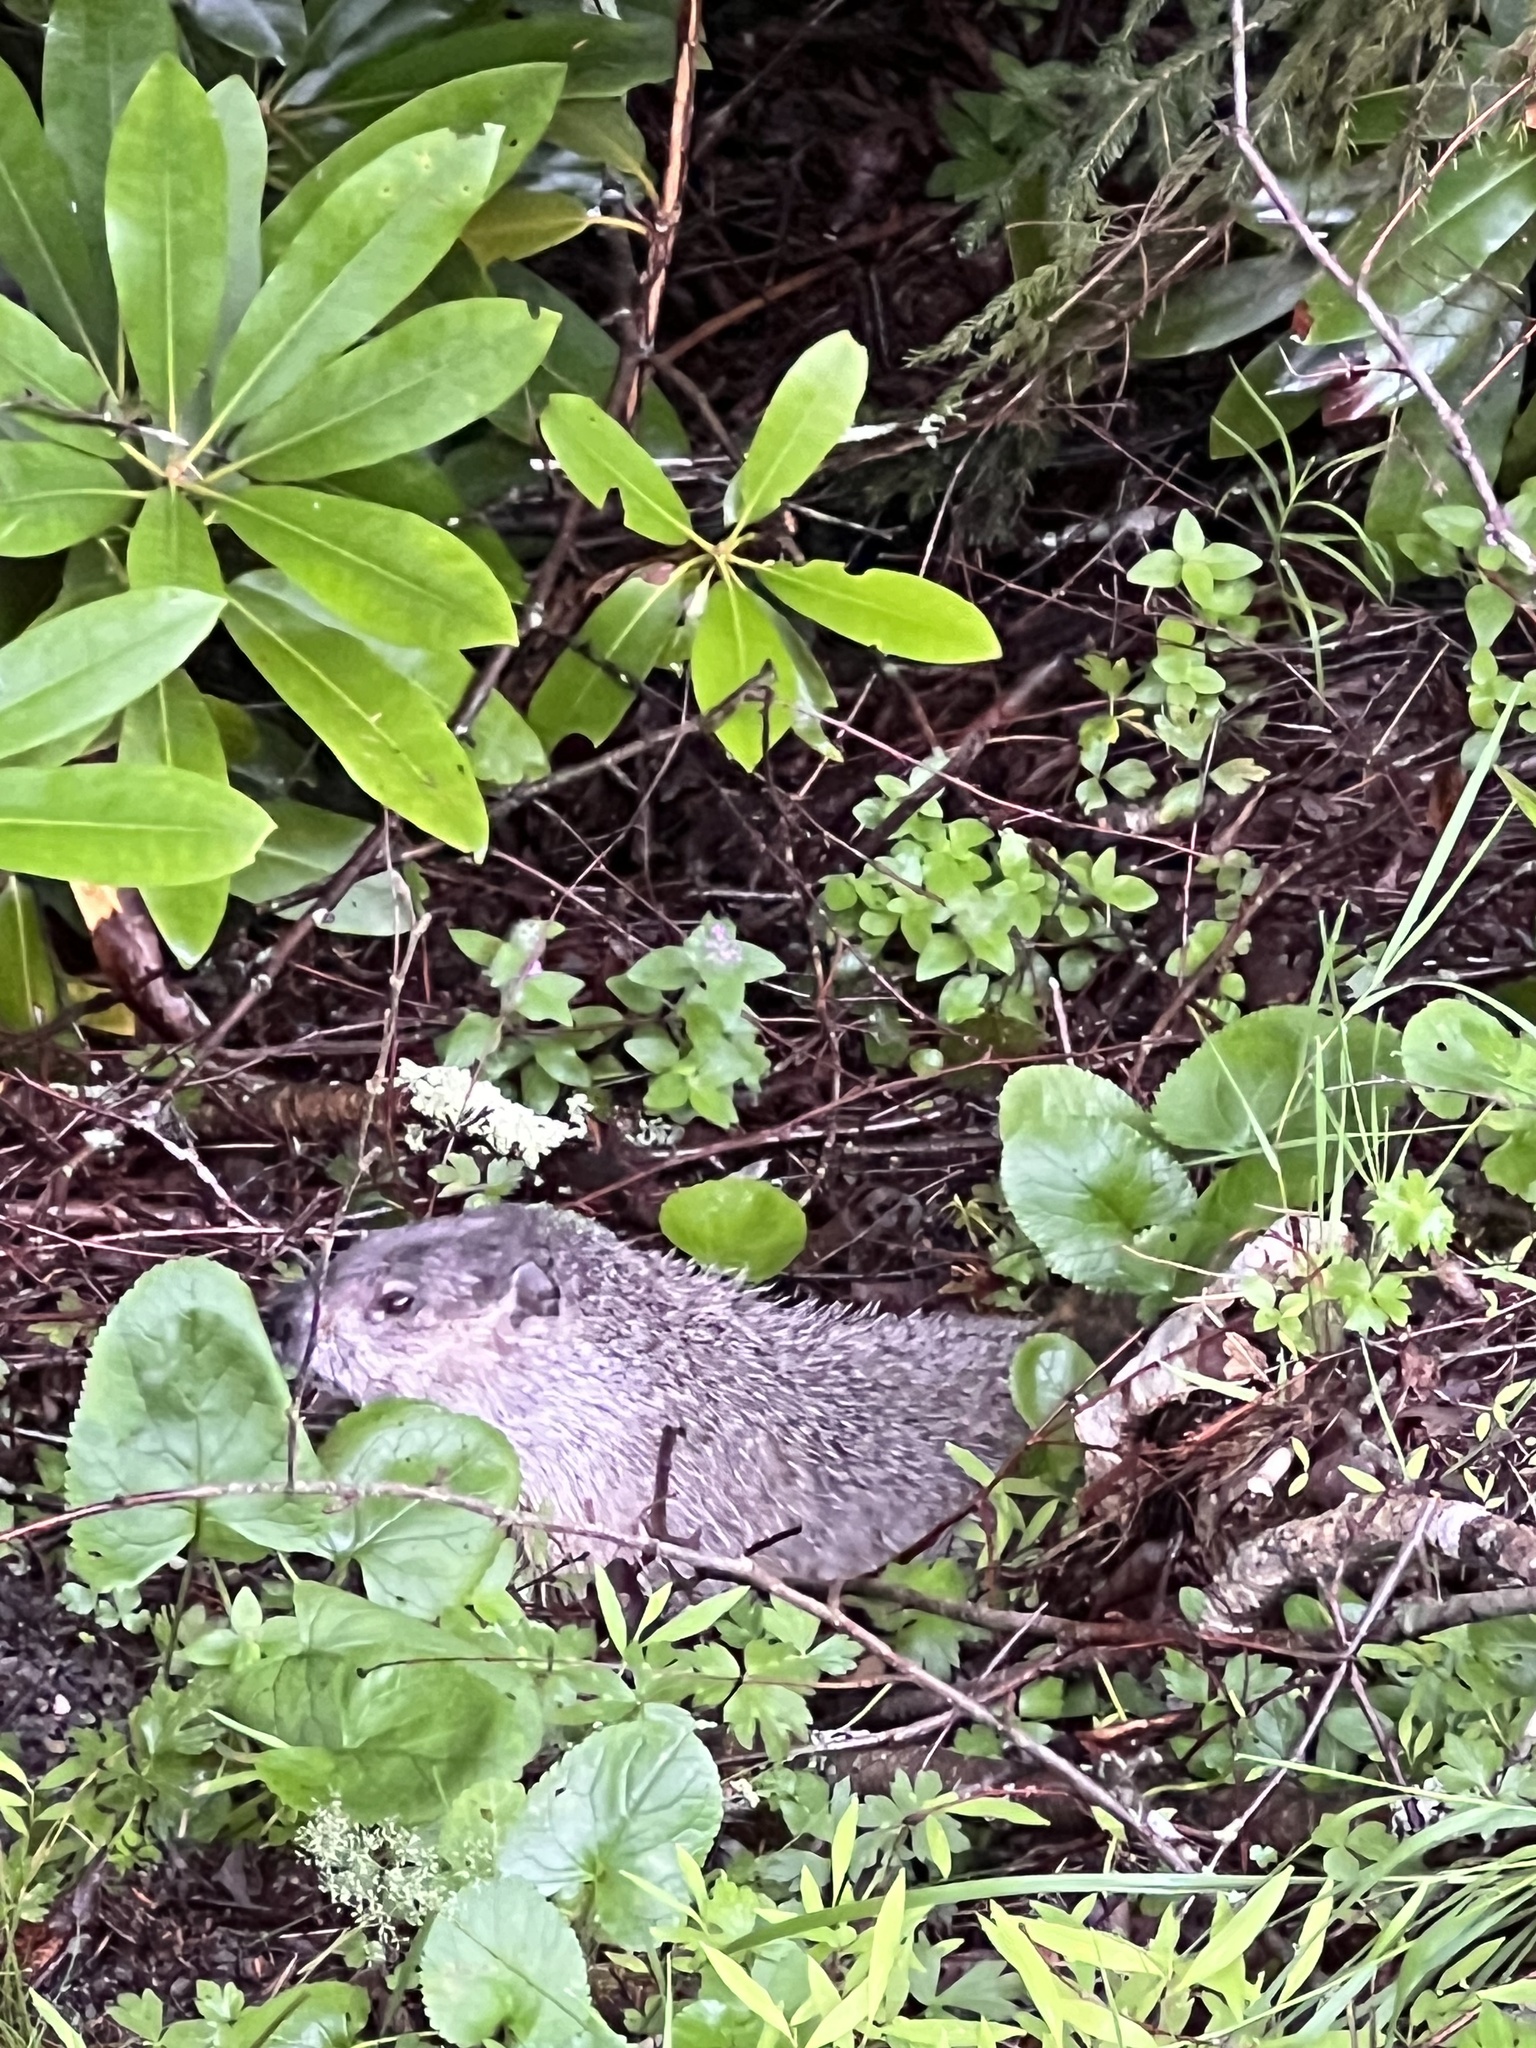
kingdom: Animalia
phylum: Chordata
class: Mammalia
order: Rodentia
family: Sciuridae
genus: Marmota
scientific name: Marmota monax
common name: Groundhog
